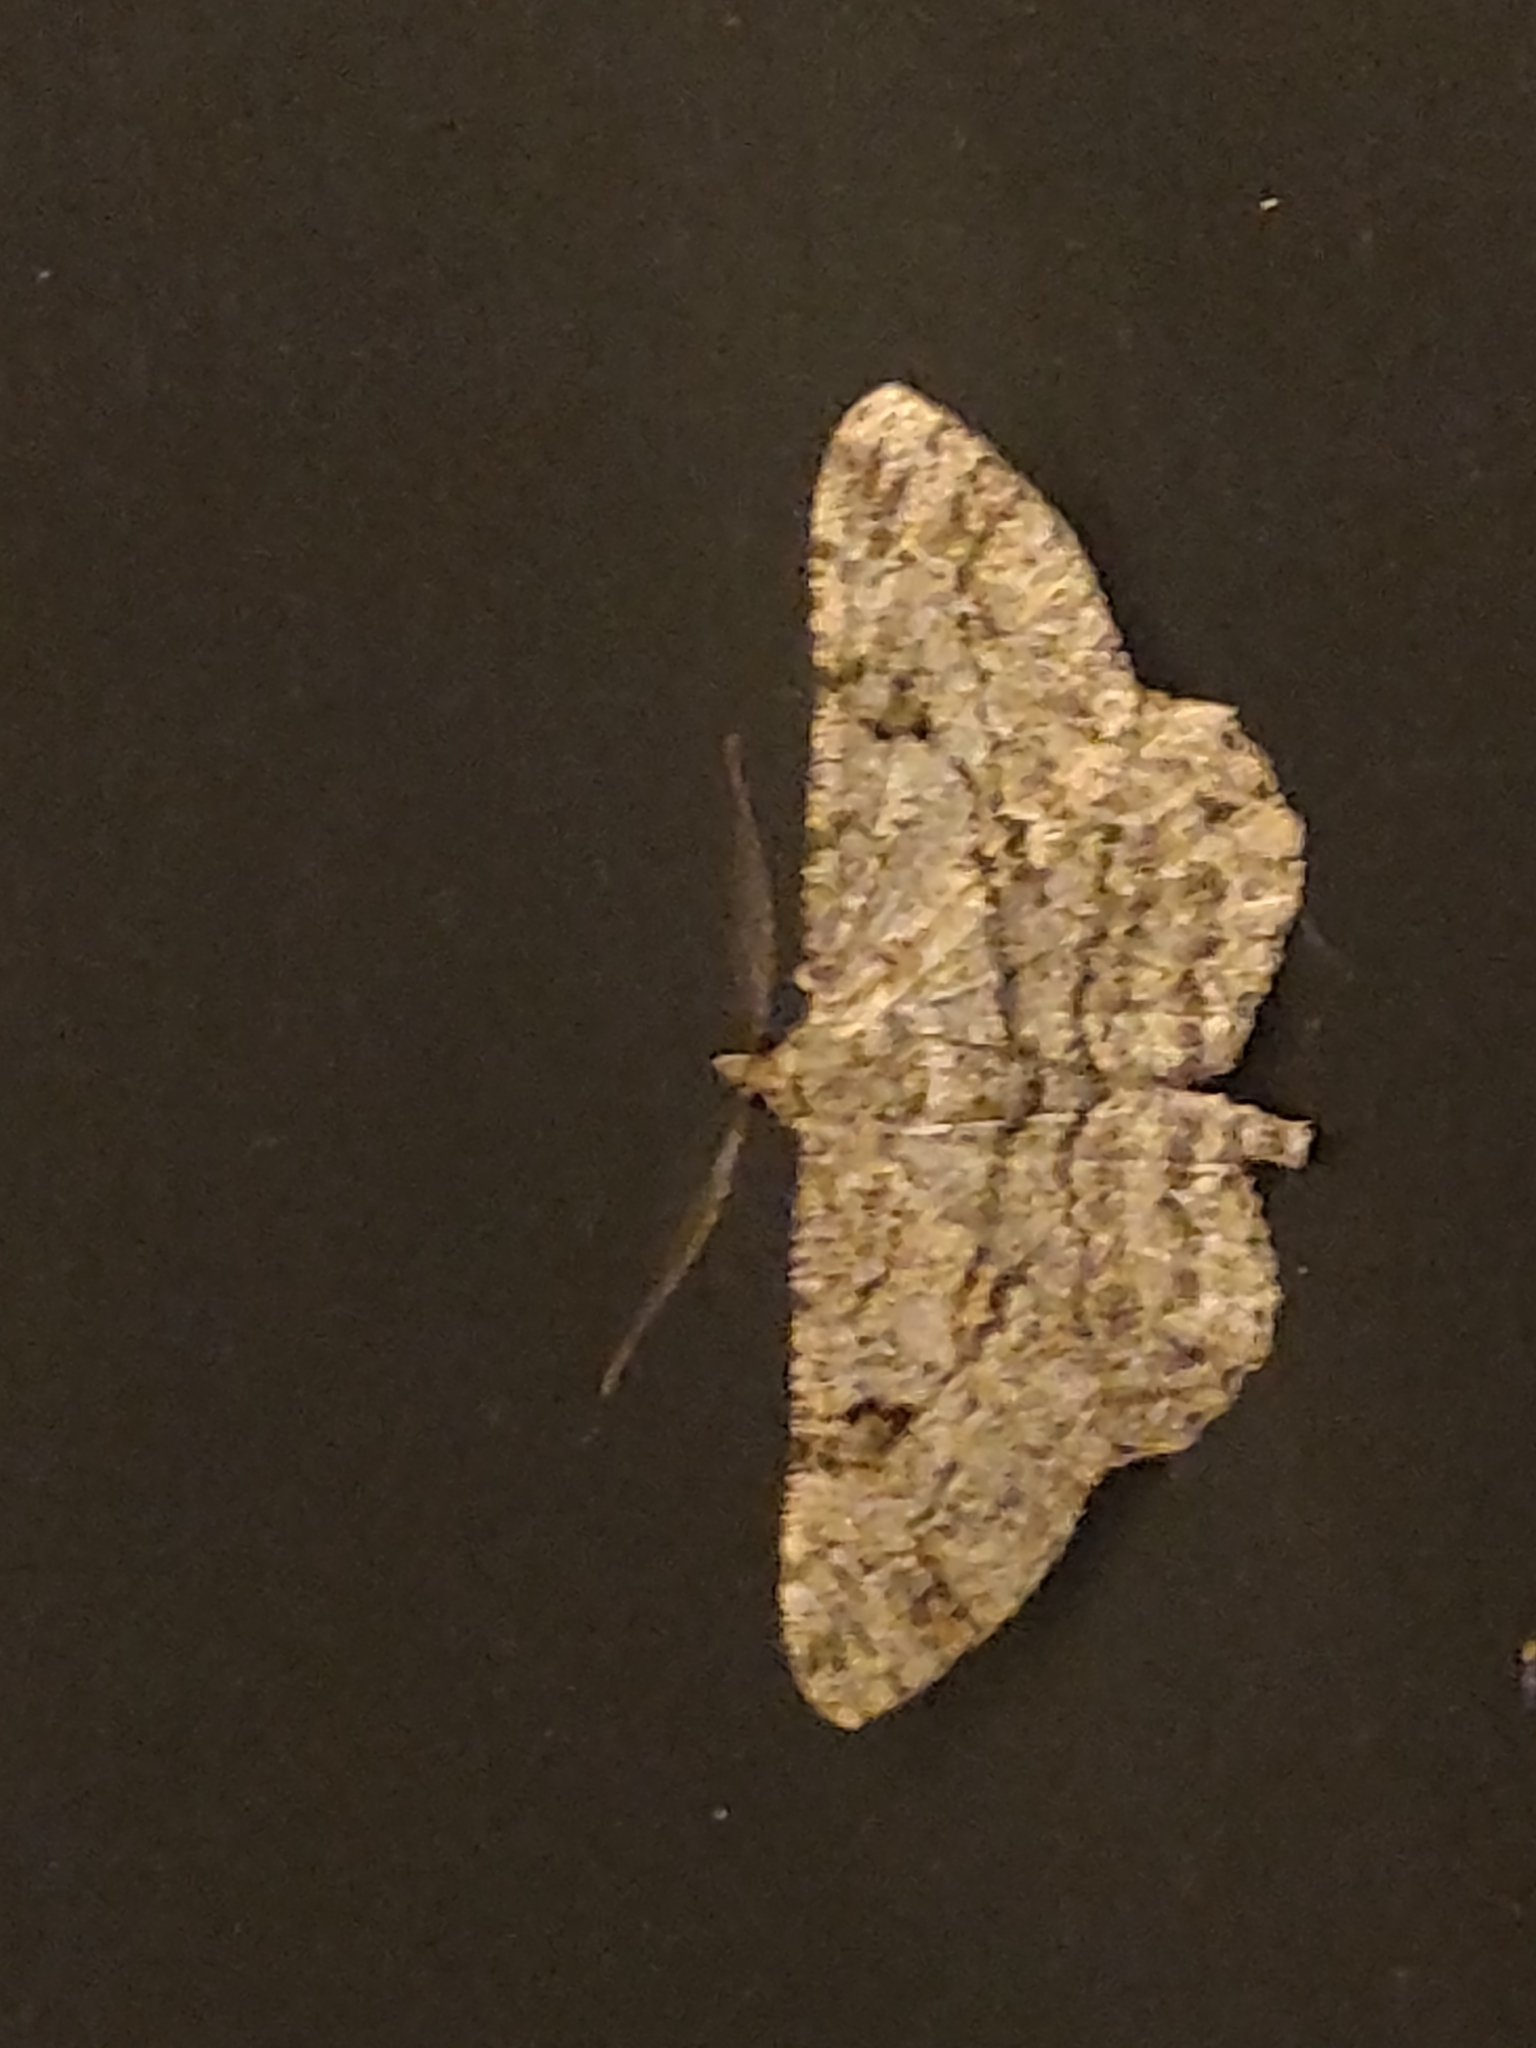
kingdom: Animalia
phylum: Arthropoda
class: Insecta
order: Lepidoptera
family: Geometridae
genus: Peribatodes
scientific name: Peribatodes rhomboidaria
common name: Willow beauty
